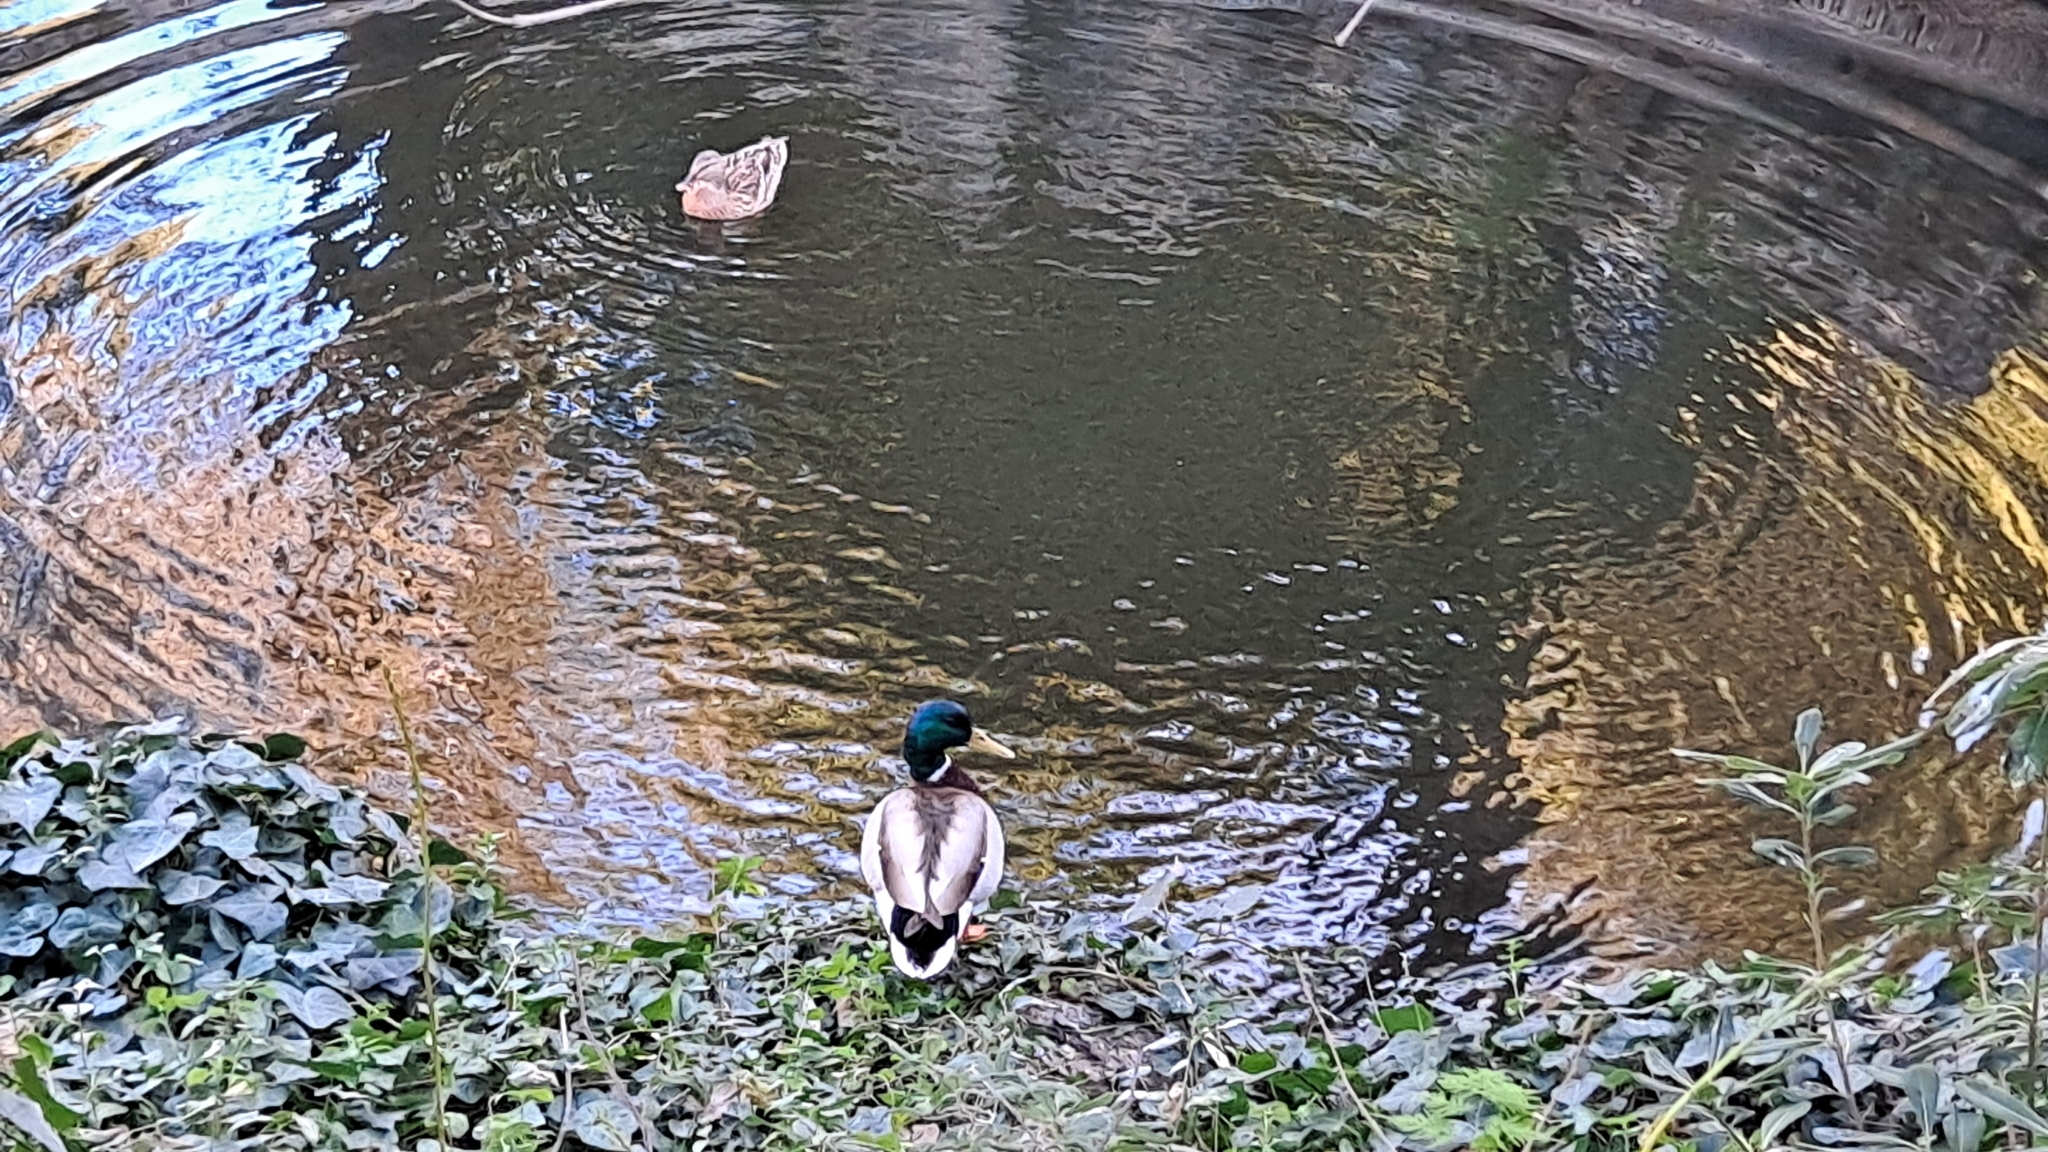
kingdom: Animalia
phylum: Chordata
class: Aves
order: Anseriformes
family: Anatidae
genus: Anas
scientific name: Anas platyrhynchos
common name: Mallard
